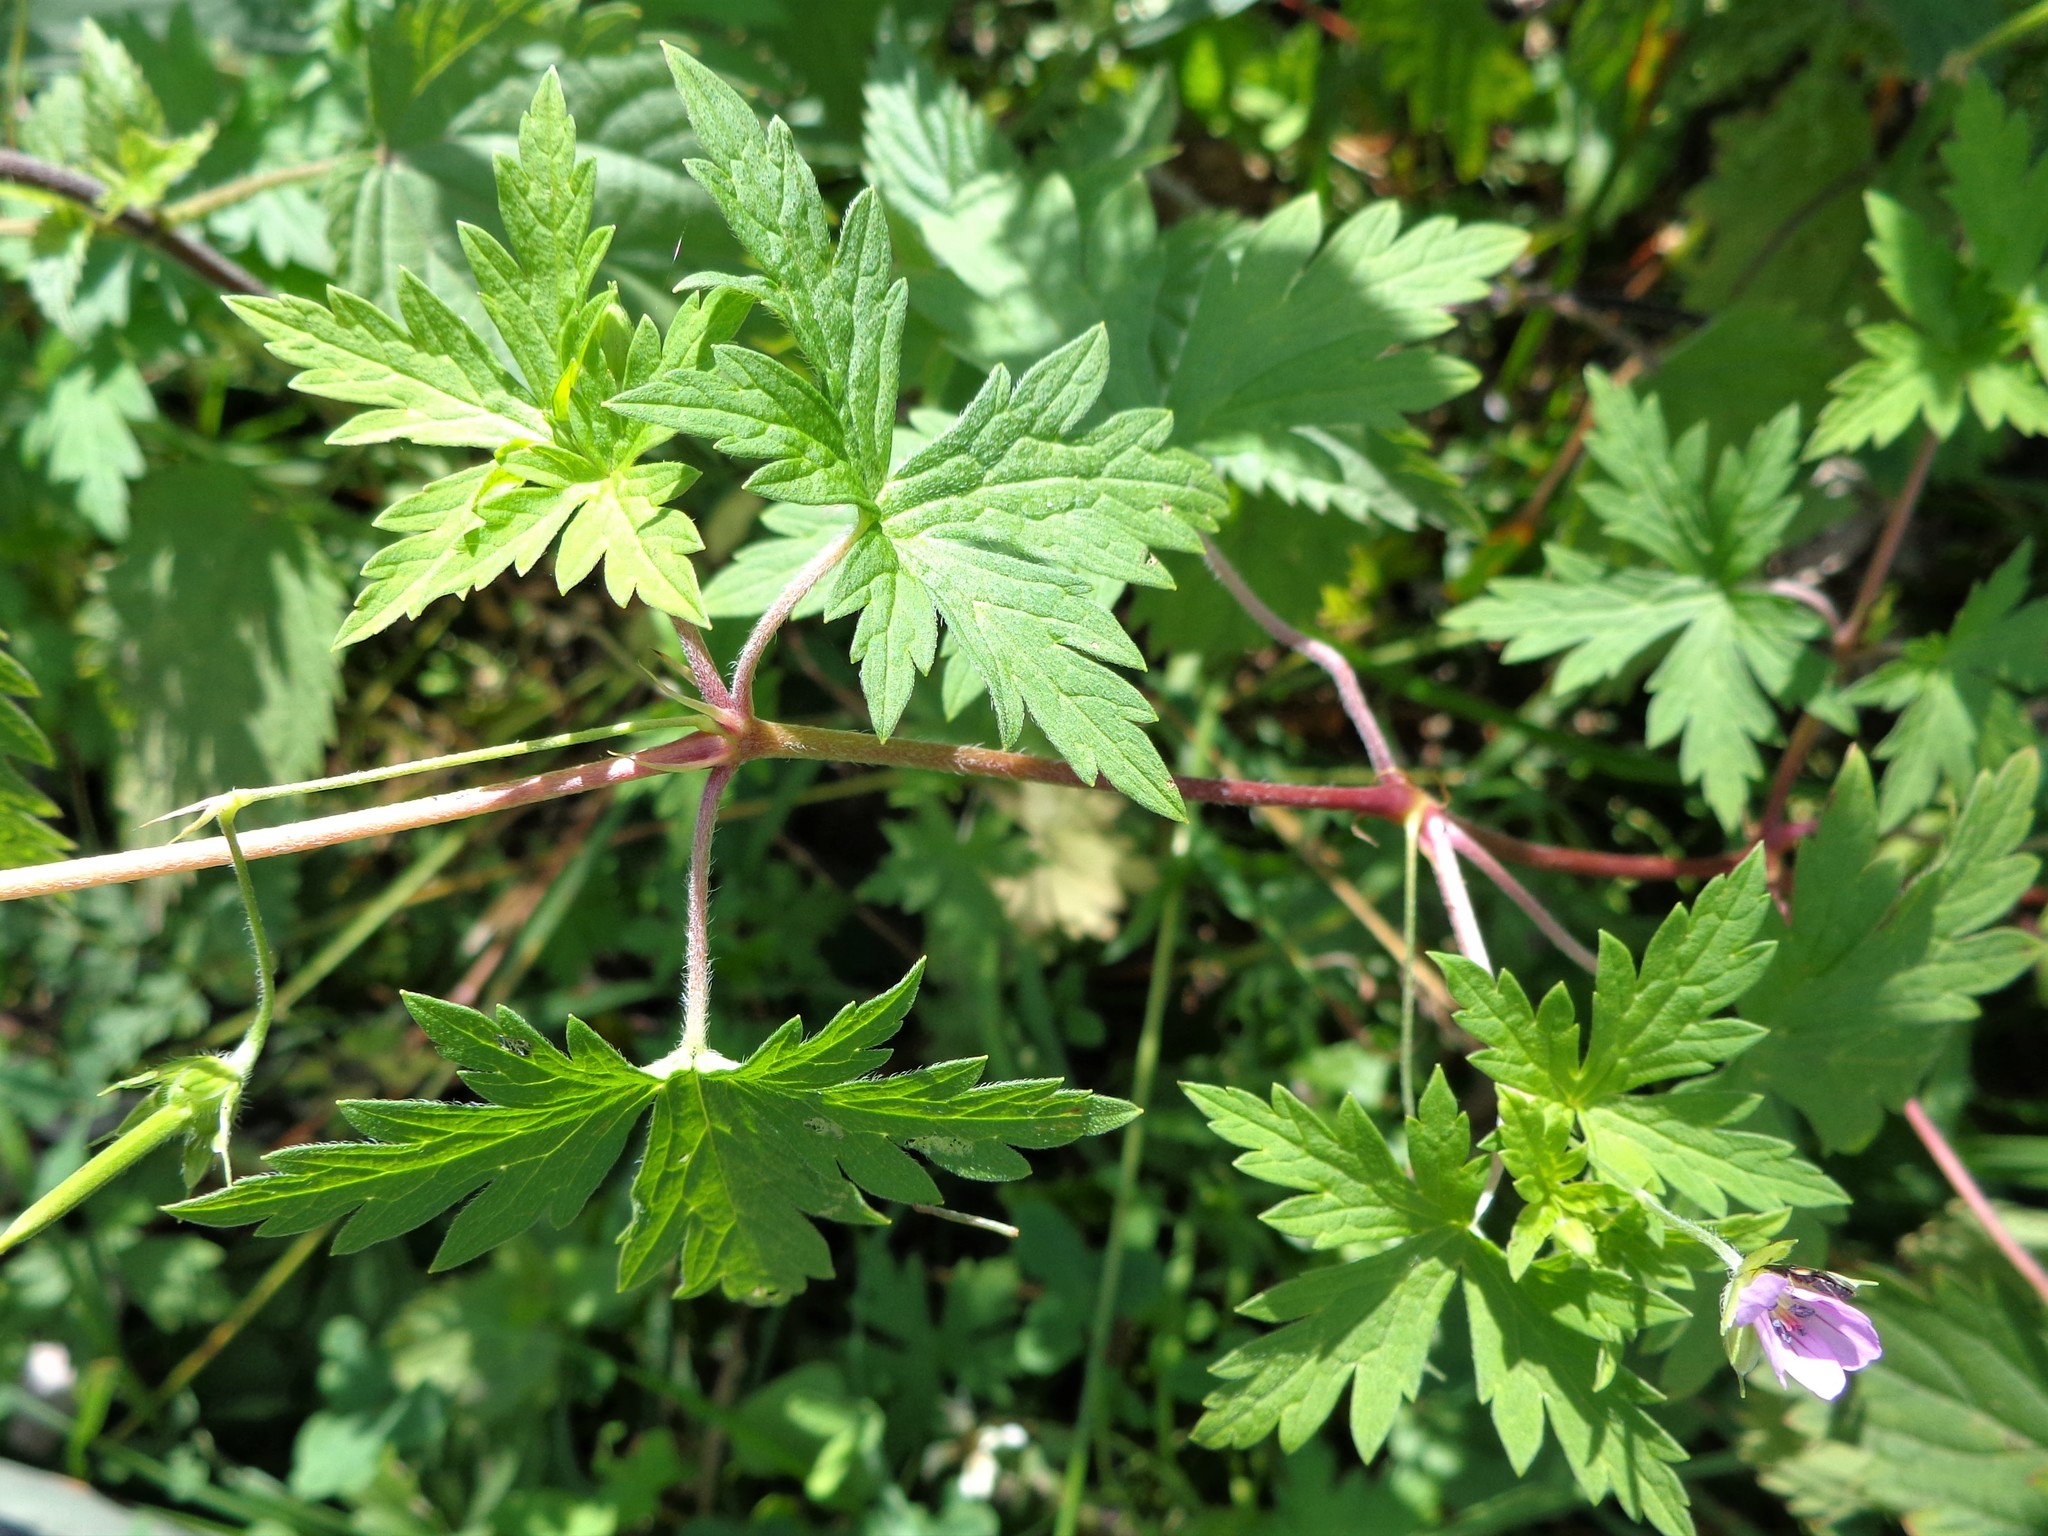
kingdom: Plantae
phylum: Tracheophyta
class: Magnoliopsida
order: Geraniales
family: Geraniaceae
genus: Geranium
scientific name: Geranium sibiricum
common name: Siberian crane's-bill
